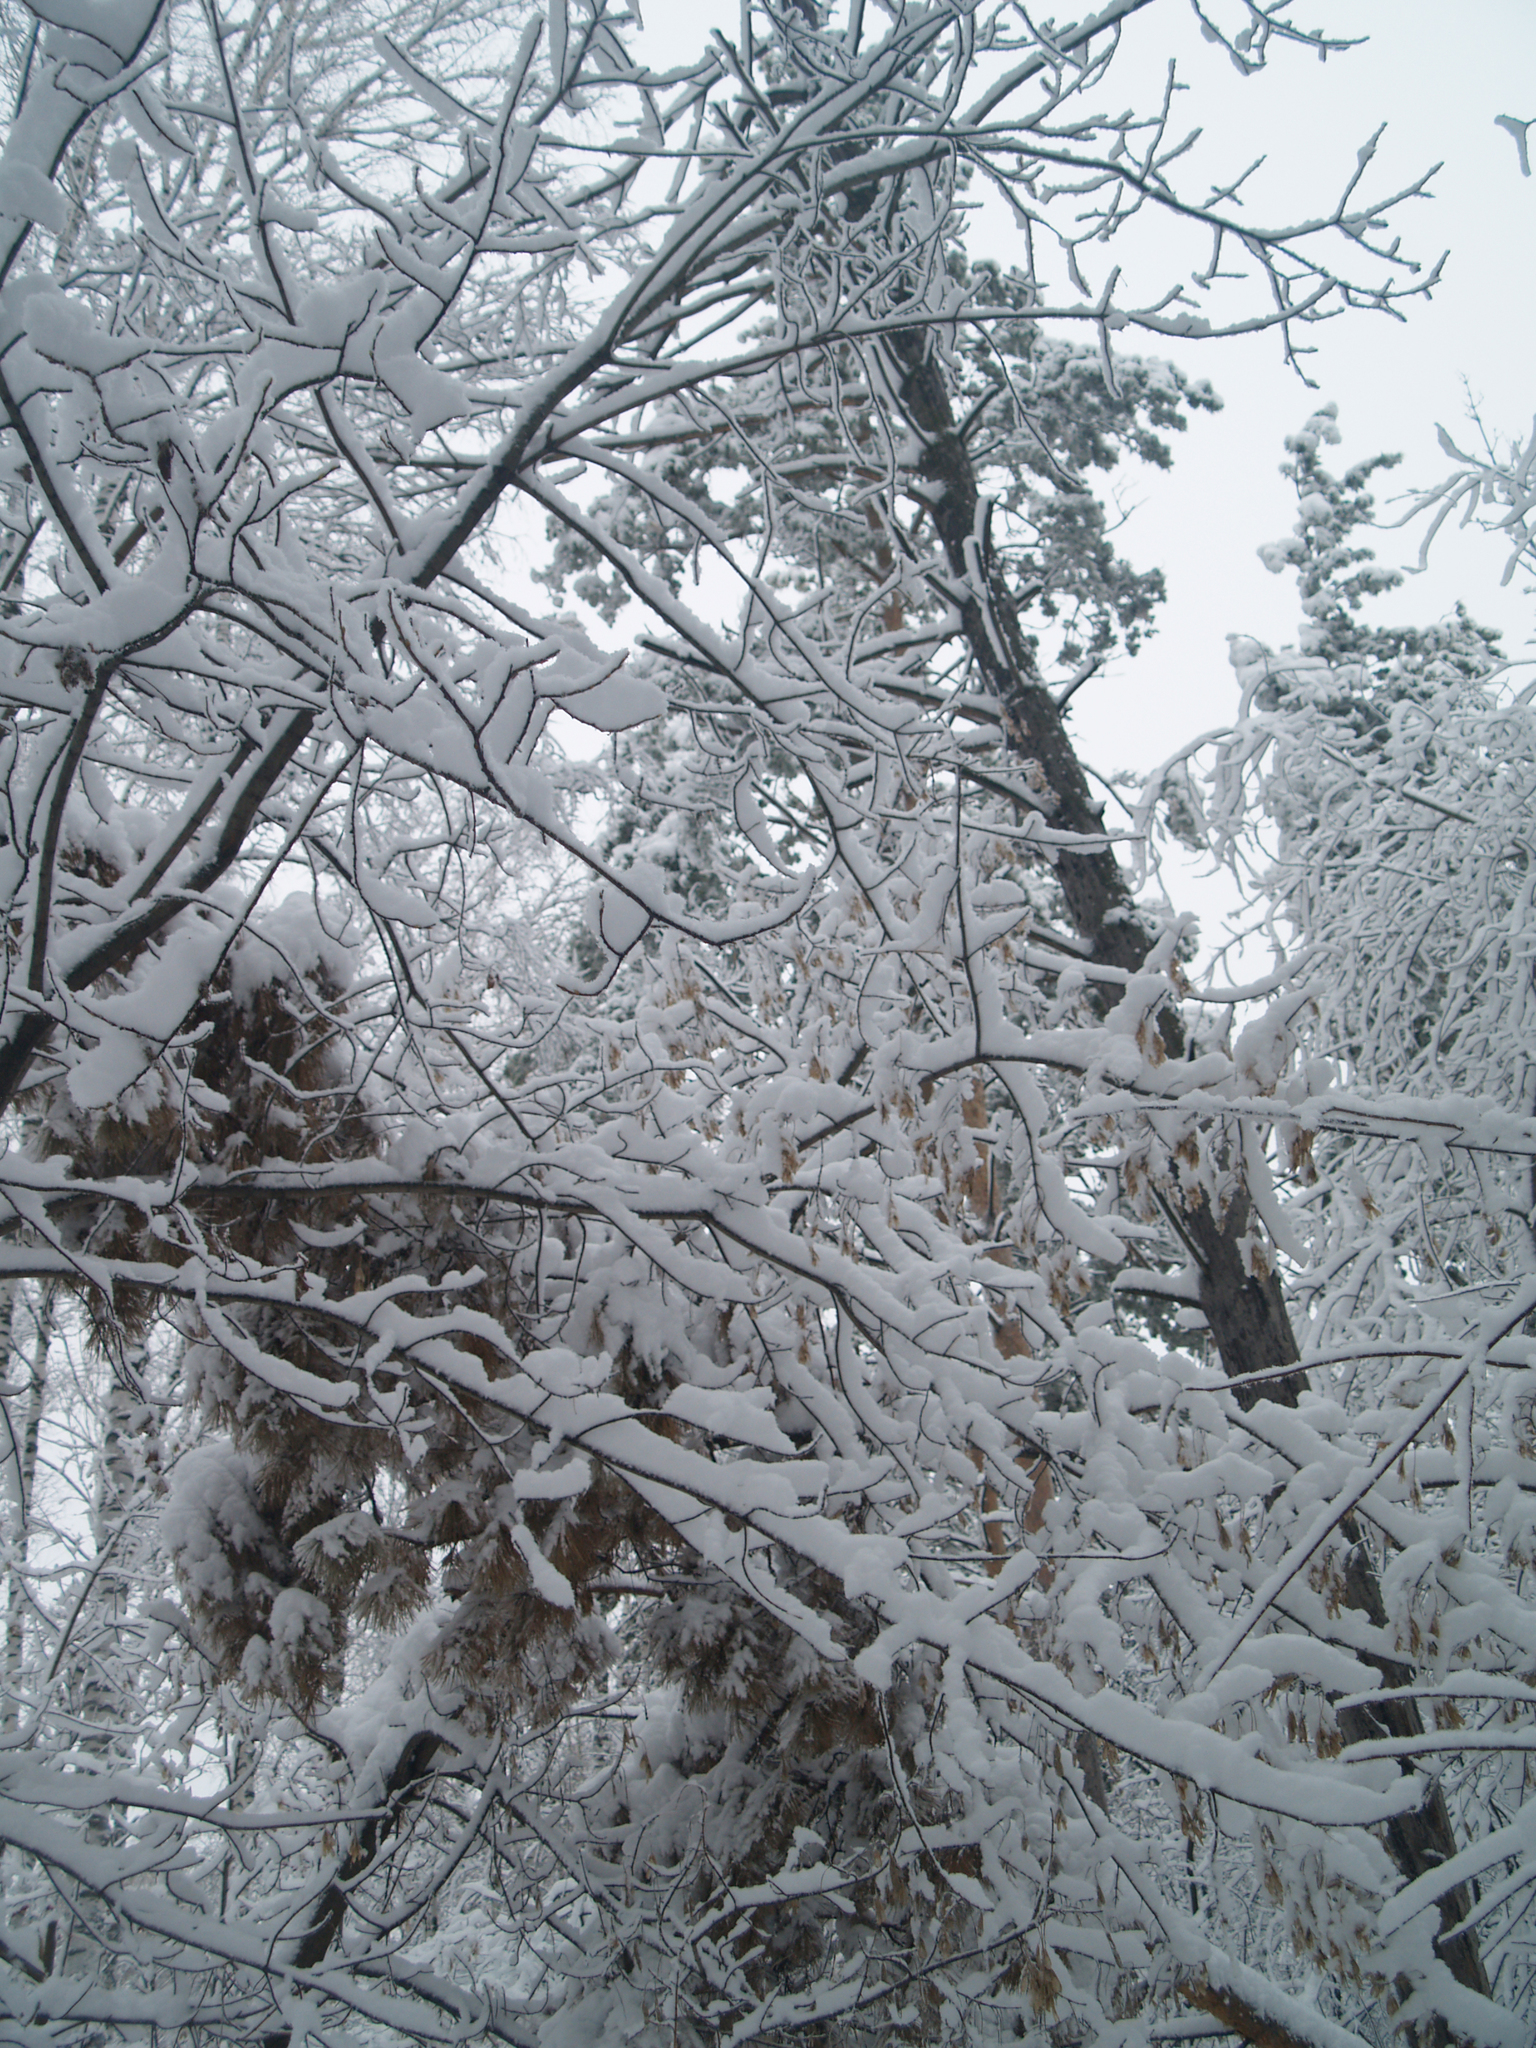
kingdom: Plantae
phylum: Tracheophyta
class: Magnoliopsida
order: Rosales
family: Rosaceae
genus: Prunus
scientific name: Prunus padus
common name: Bird cherry
